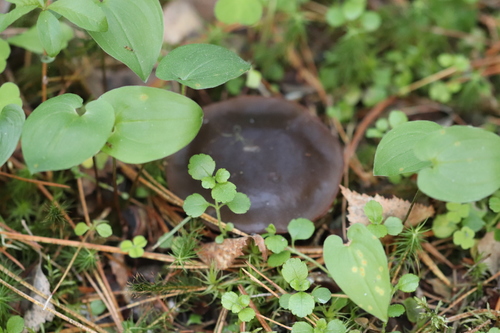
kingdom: Fungi
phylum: Ascomycota
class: Pezizomycetes
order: Pezizales
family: Sarcosomataceae
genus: Sarcosoma
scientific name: Sarcosoma globosum
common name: Charred-pancake cup
